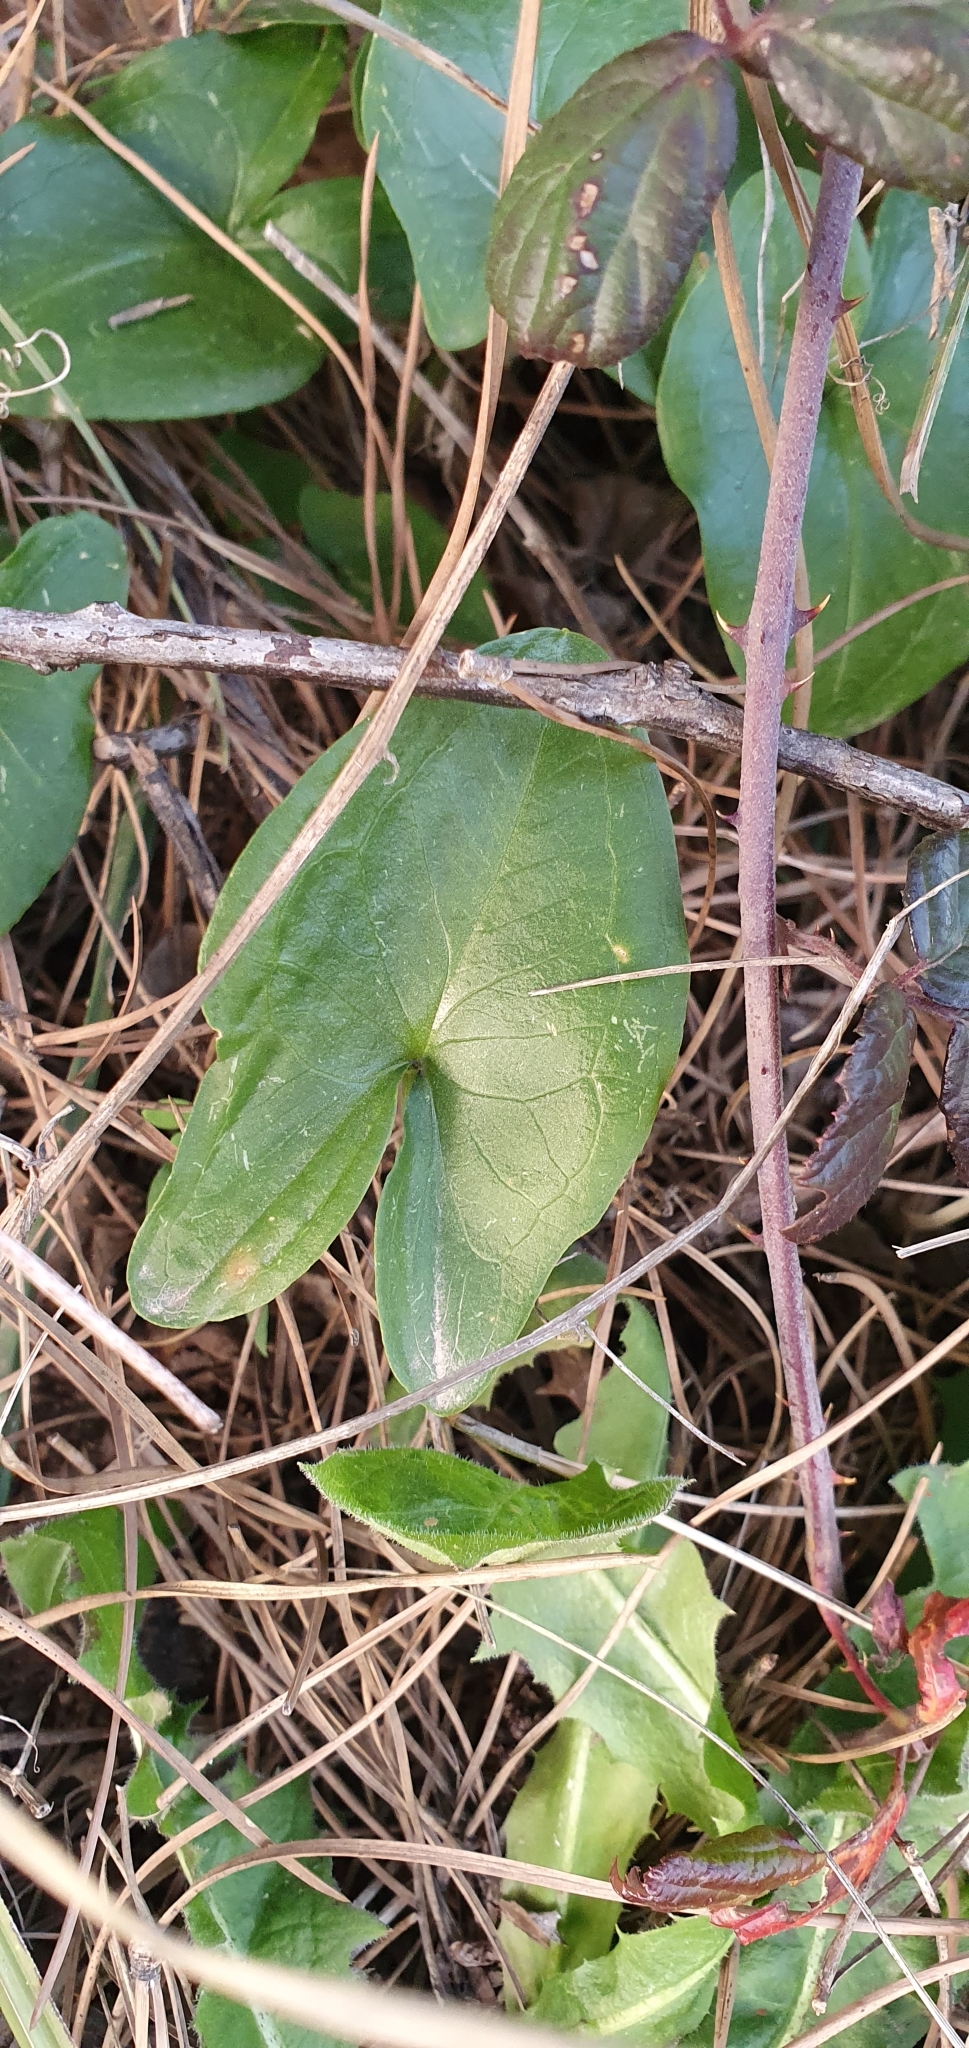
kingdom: Plantae
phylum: Tracheophyta
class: Liliopsida
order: Alismatales
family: Araceae
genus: Arisarum
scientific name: Arisarum vulgare
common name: Common arisarum
